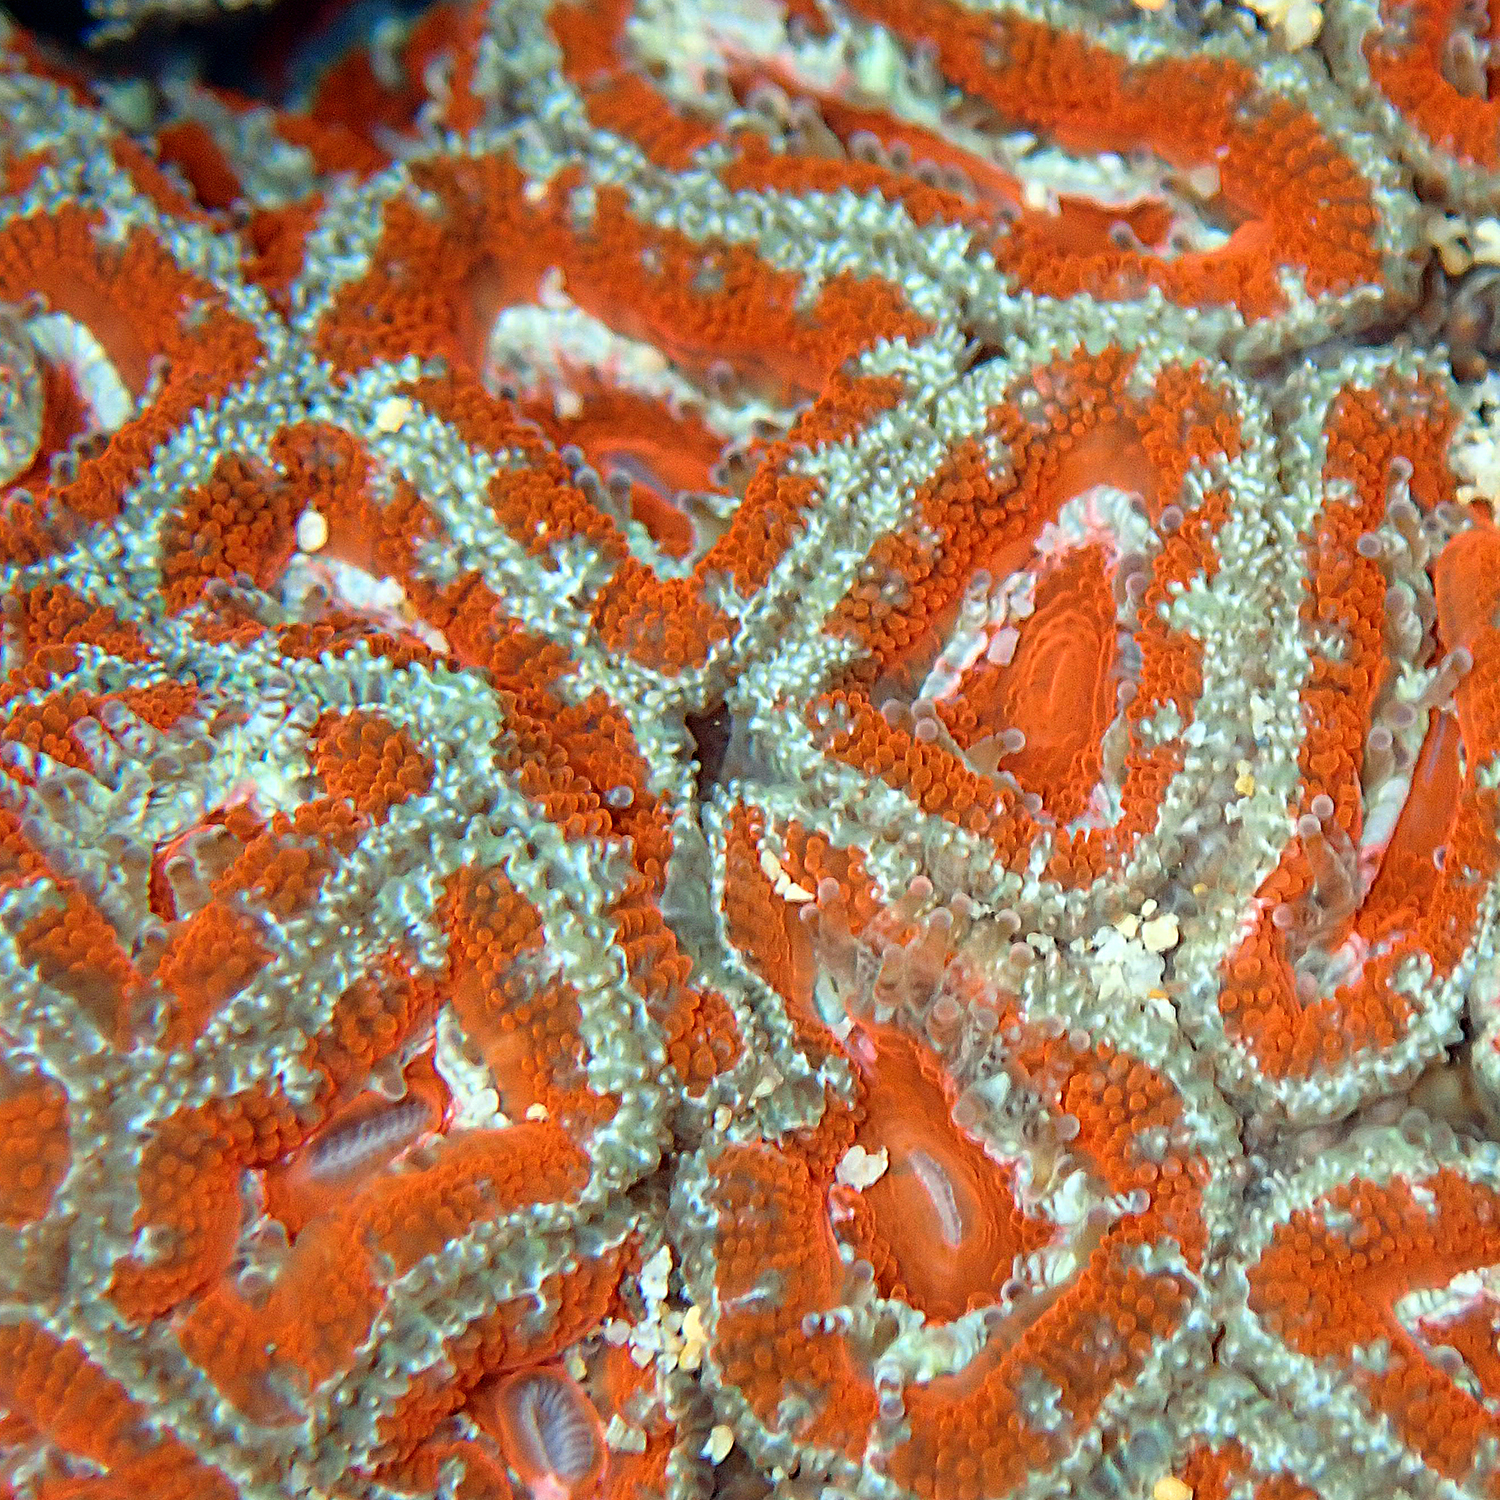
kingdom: Animalia
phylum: Cnidaria
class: Anthozoa
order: Scleractinia
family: Lobophylliidae
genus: Micromussa
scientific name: Micromussa lordhowensis
